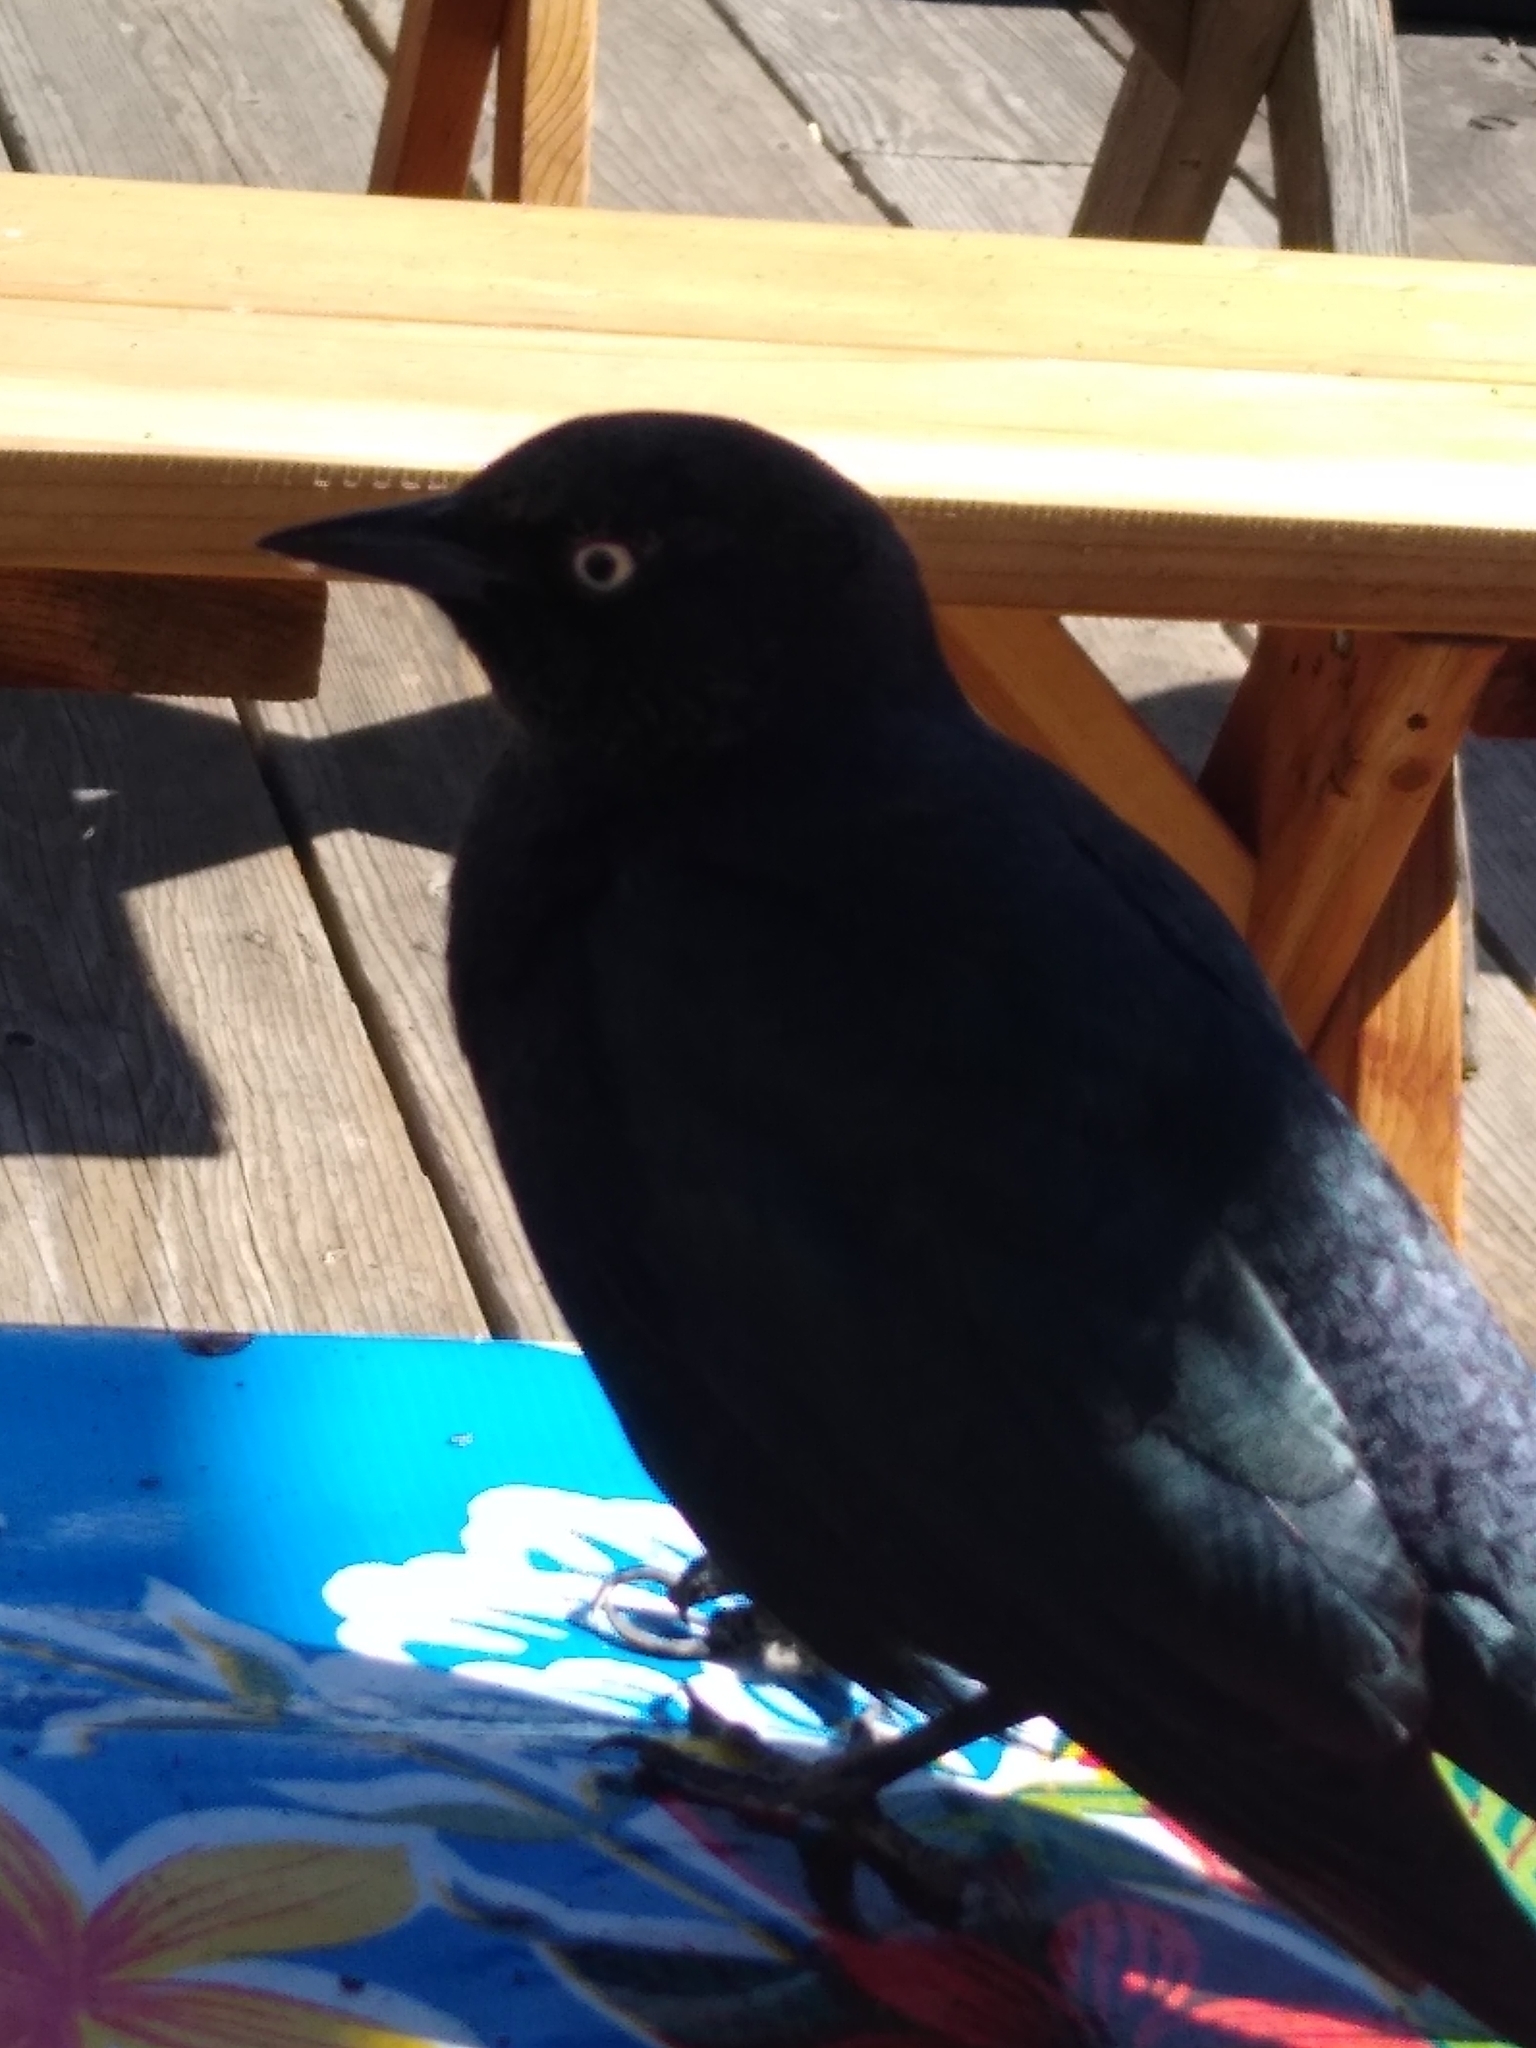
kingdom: Animalia
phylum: Chordata
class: Aves
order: Passeriformes
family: Icteridae
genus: Euphagus
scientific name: Euphagus cyanocephalus
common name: Brewer's blackbird
